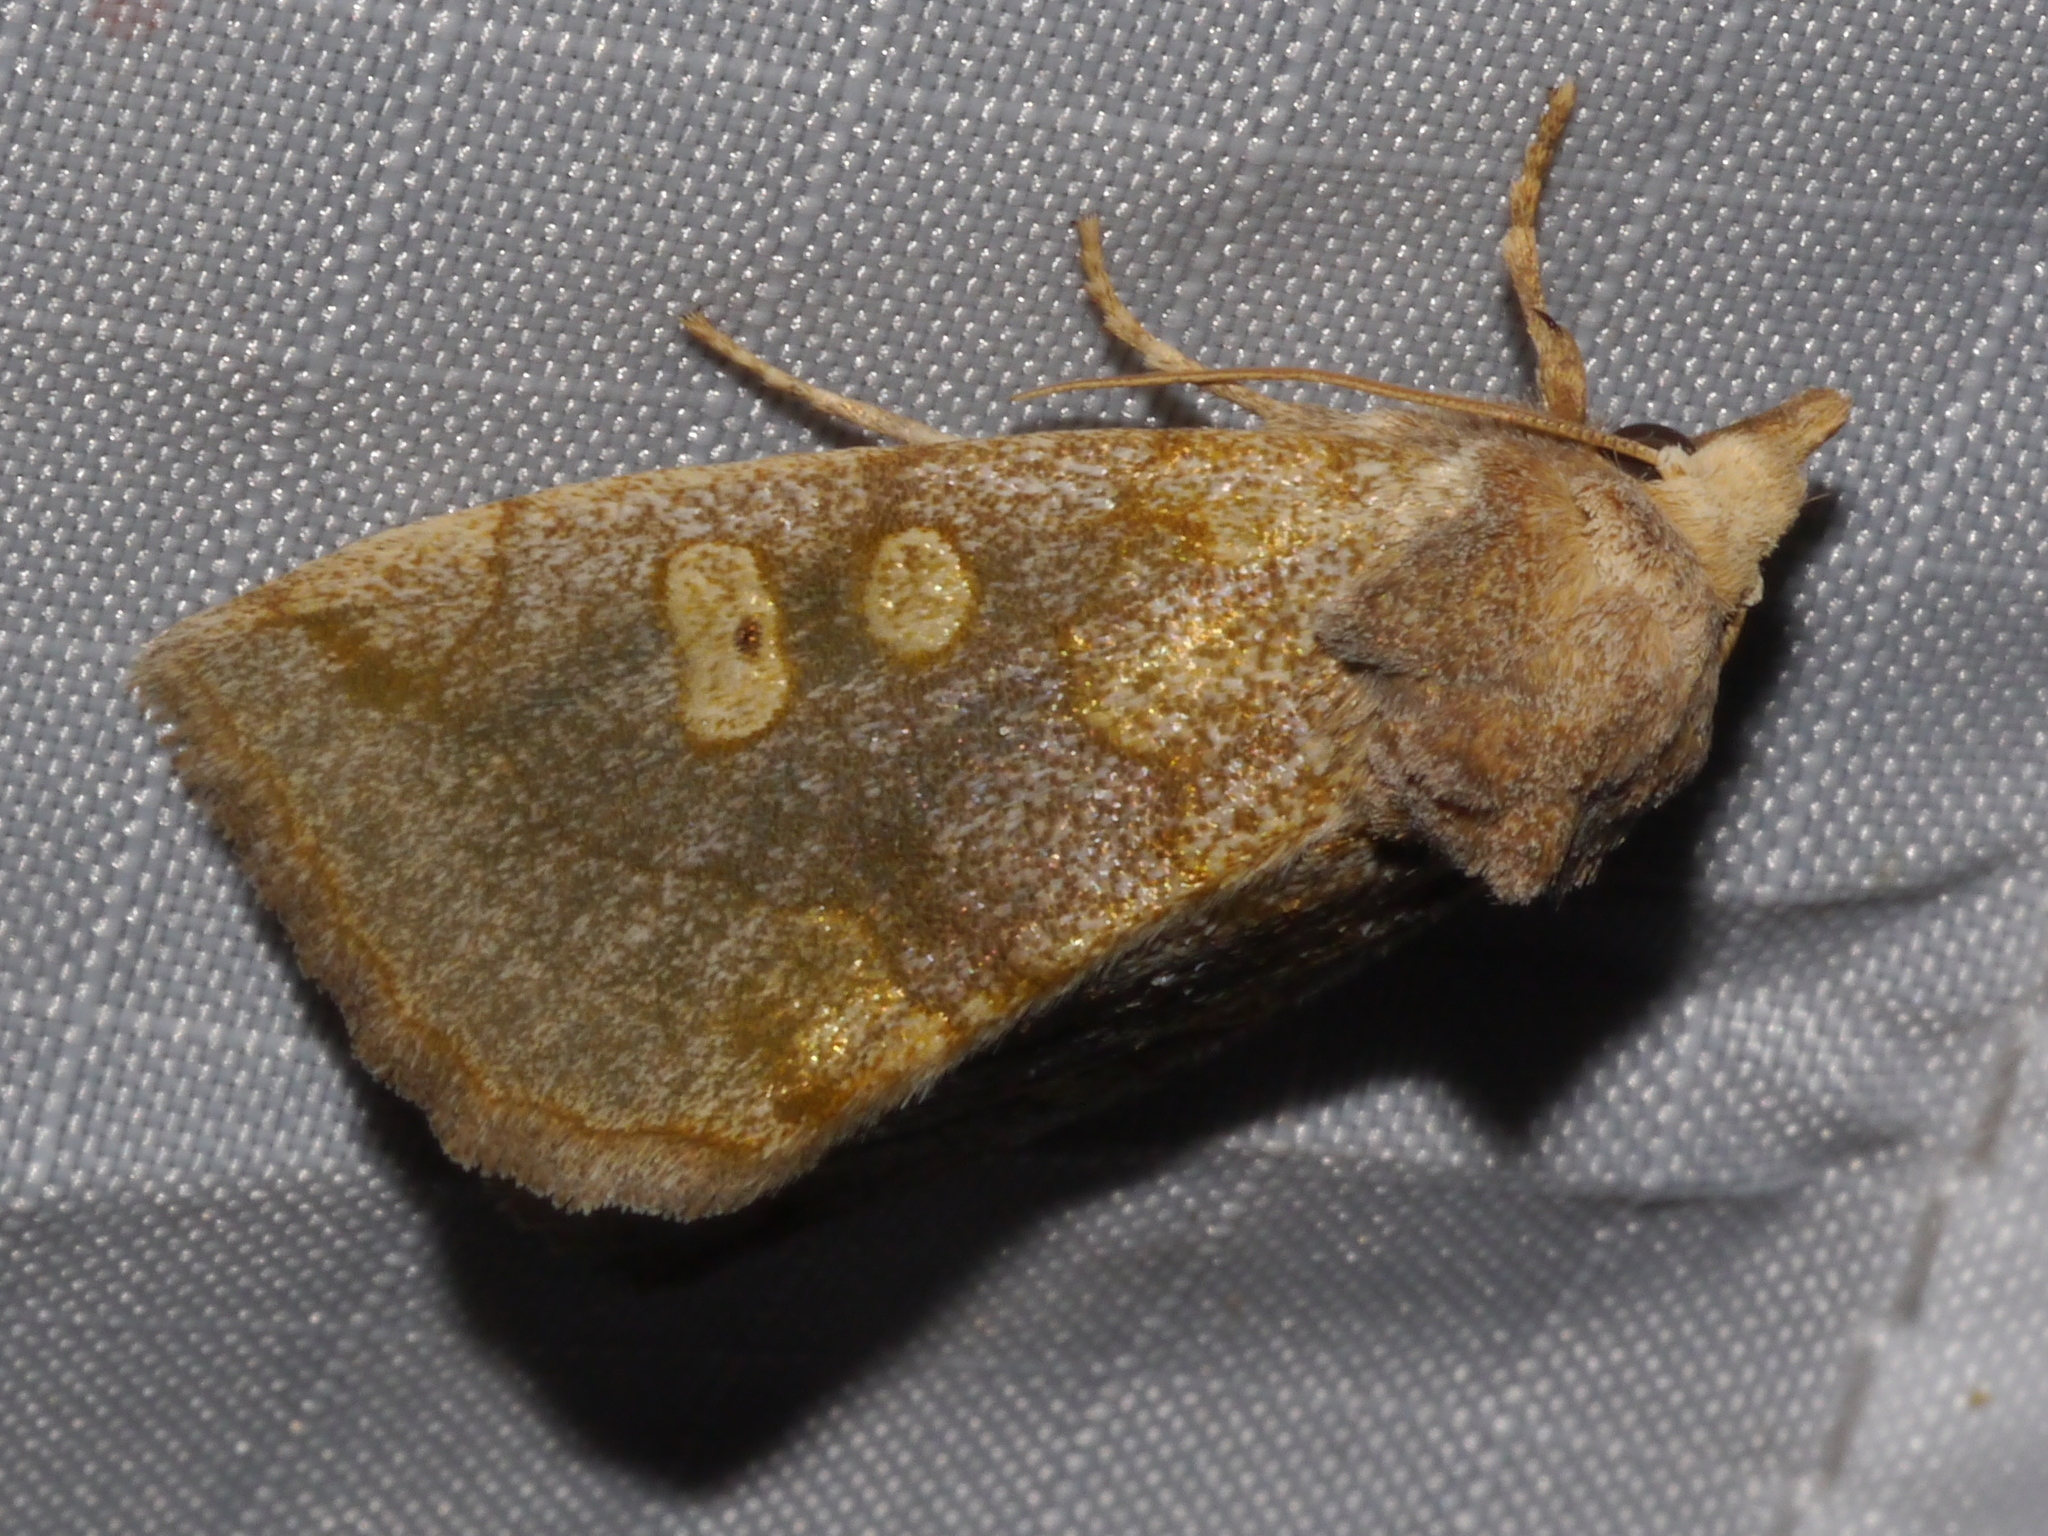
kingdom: Animalia
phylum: Arthropoda
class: Insecta
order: Lepidoptera
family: Noctuidae
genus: Basilodes
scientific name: Basilodes chrysopis
